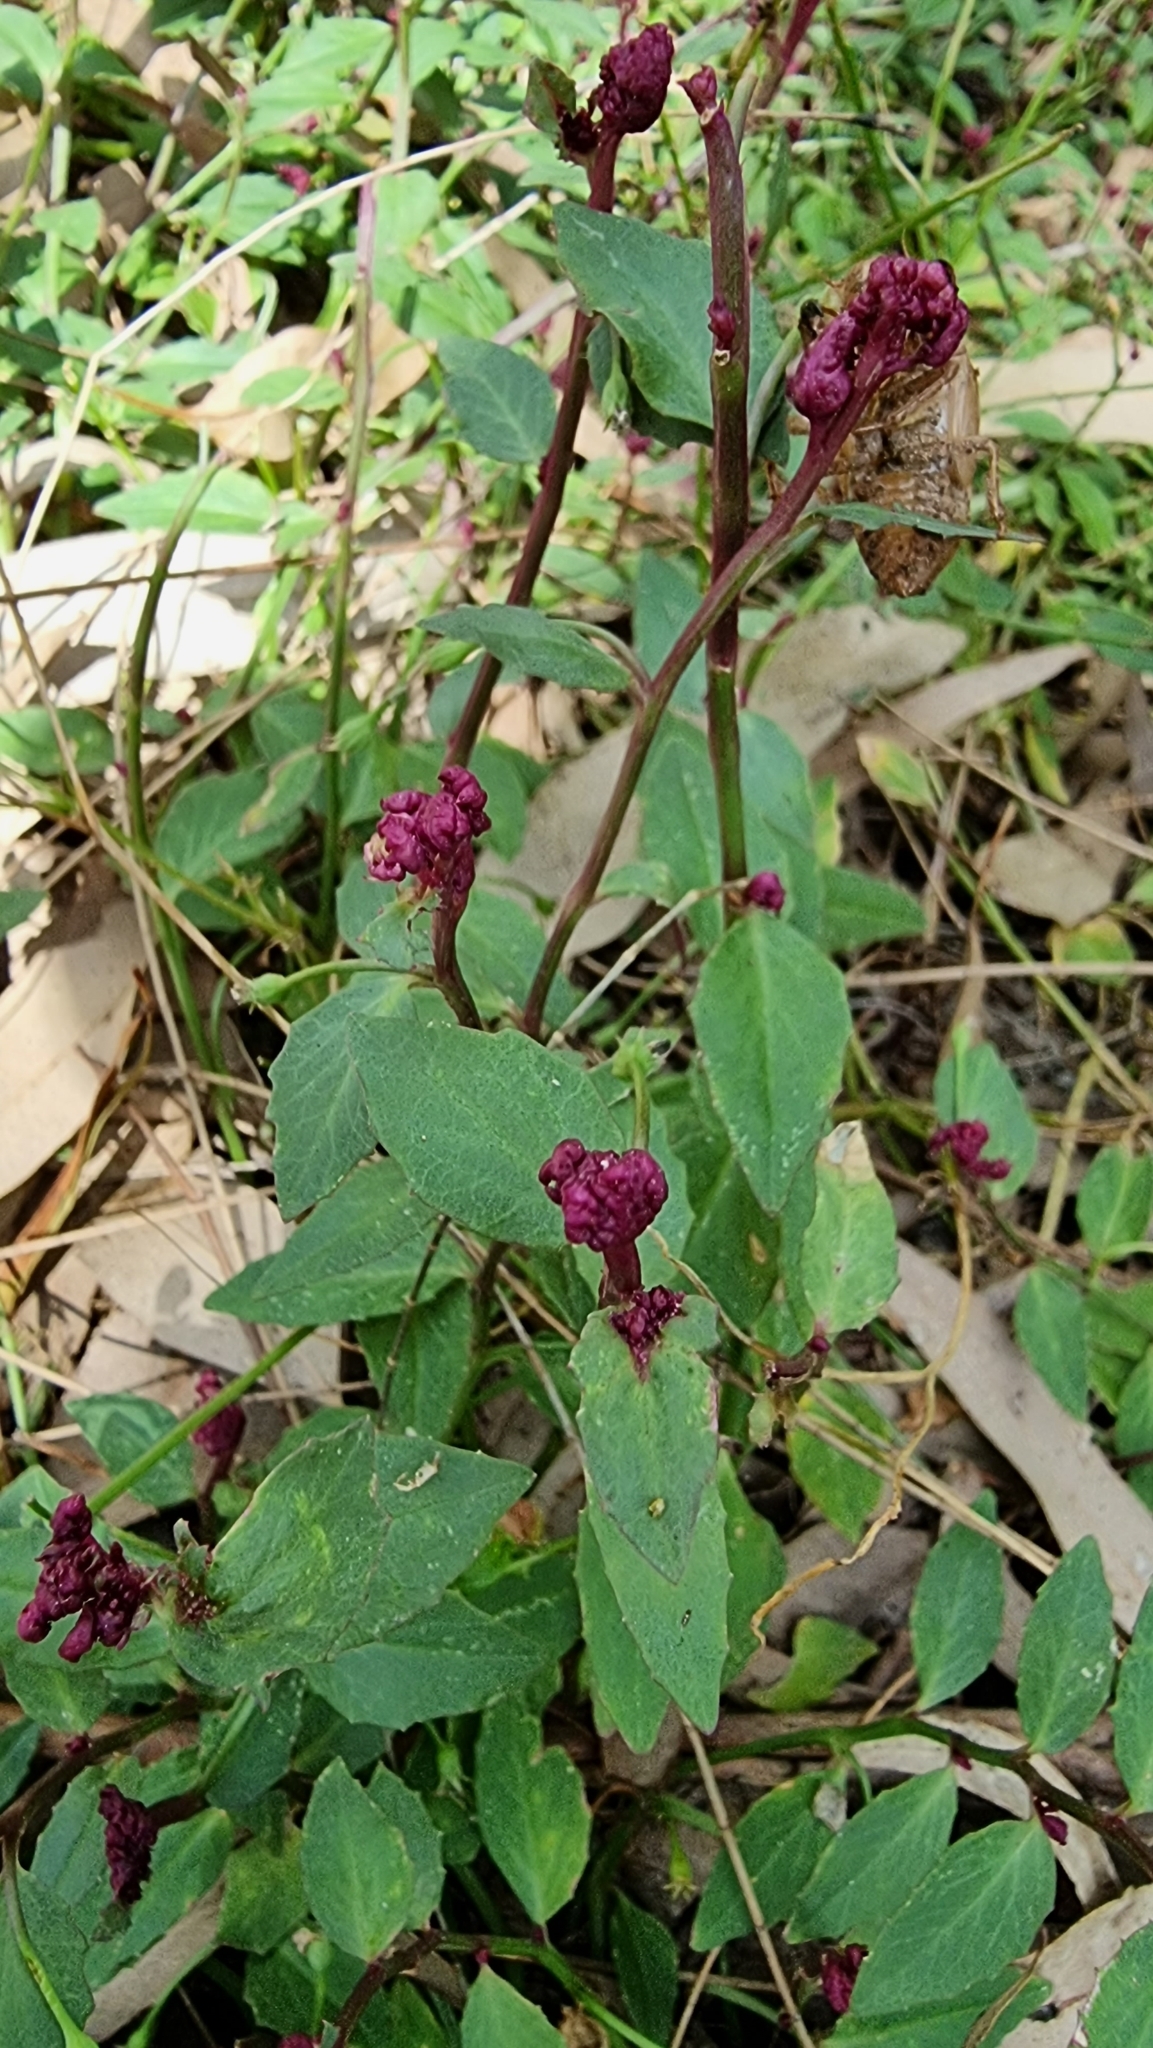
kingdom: Plantae
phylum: Tracheophyta
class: Magnoliopsida
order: Asterales
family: Campanulaceae
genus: Lobelia
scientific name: Lobelia purpurascens
